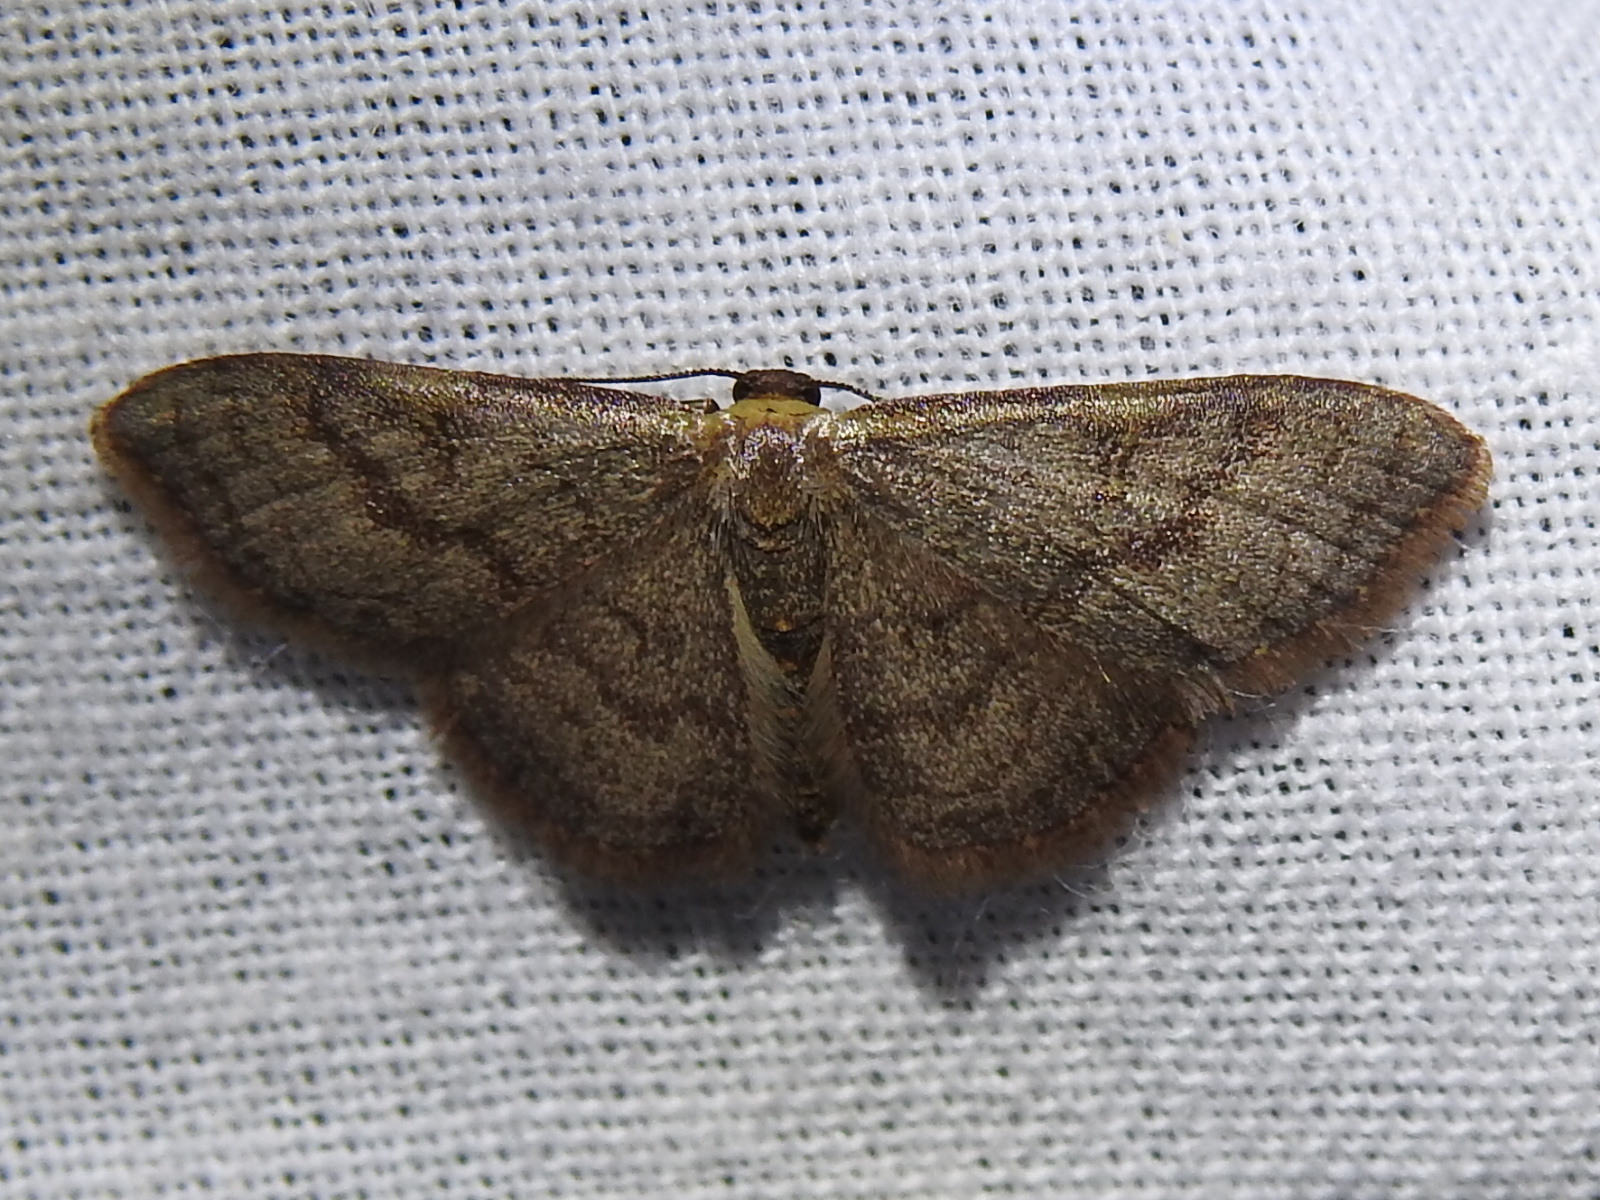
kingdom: Animalia
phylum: Arthropoda
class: Insecta
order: Lepidoptera
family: Geometridae
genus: Leptostales
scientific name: Leptostales pannaria
